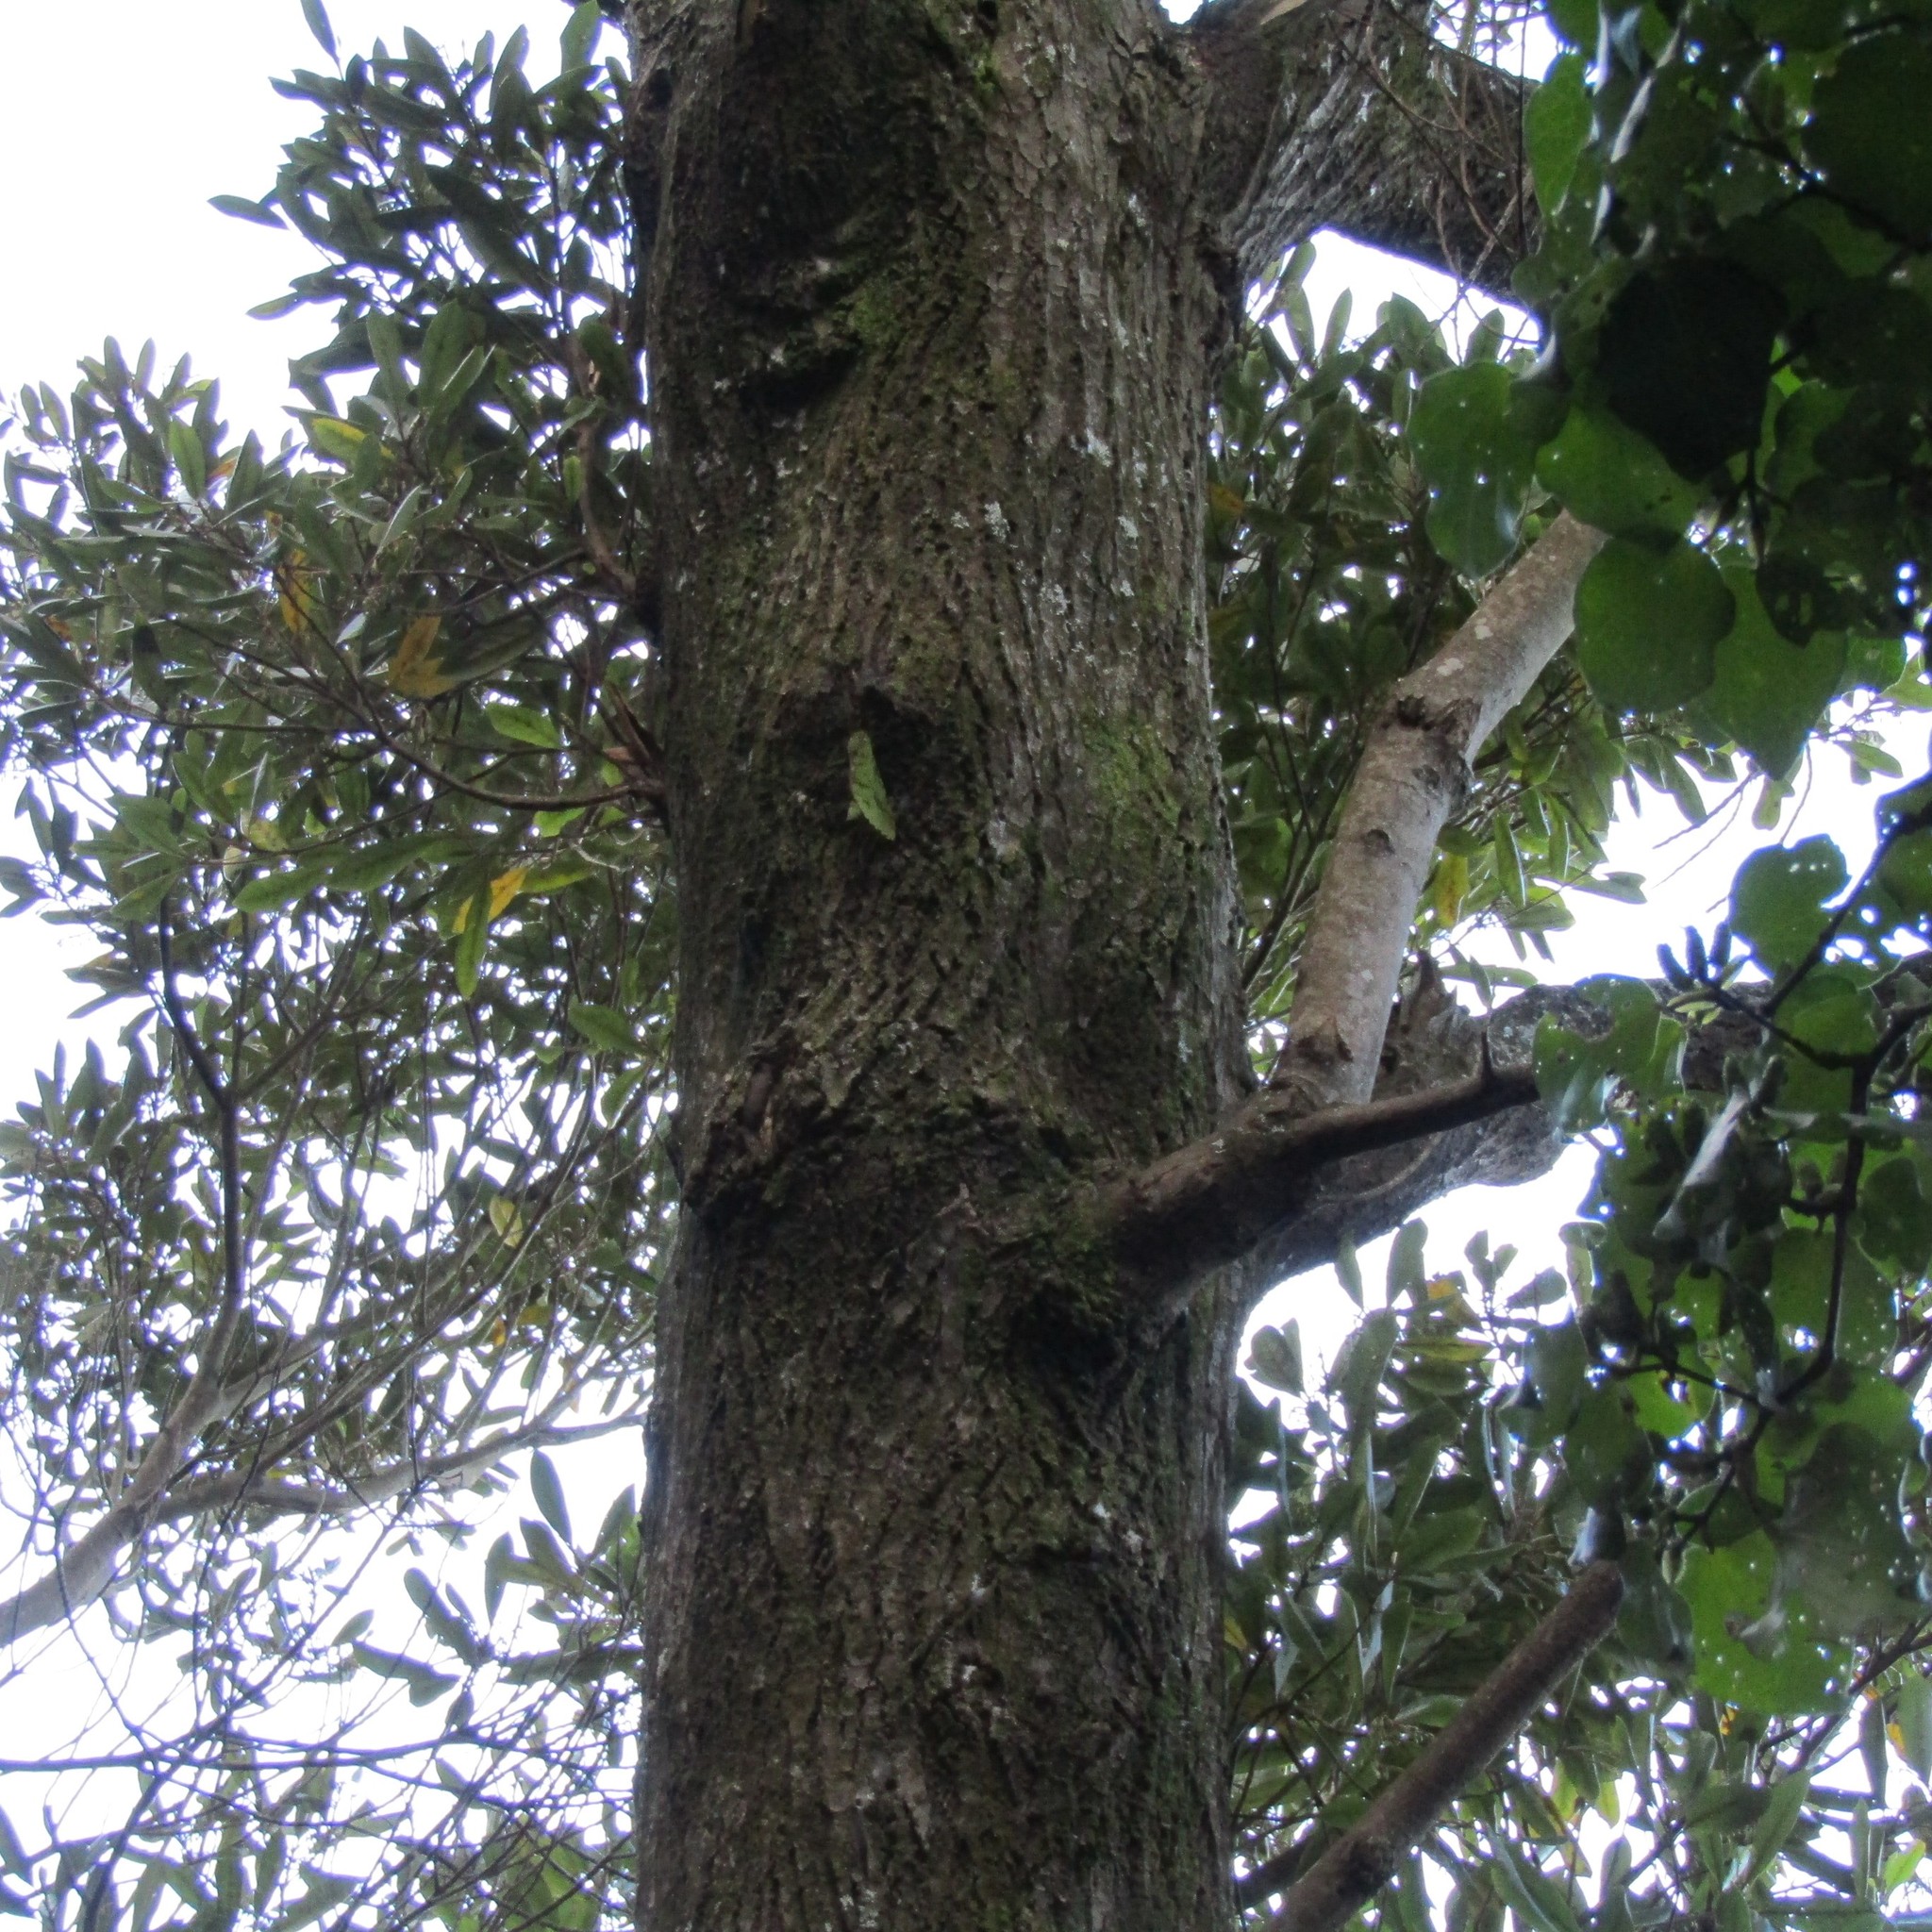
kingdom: Animalia
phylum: Arthropoda
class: Insecta
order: Lepidoptera
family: Hepialidae
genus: Aenetus
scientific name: Aenetus virescens
